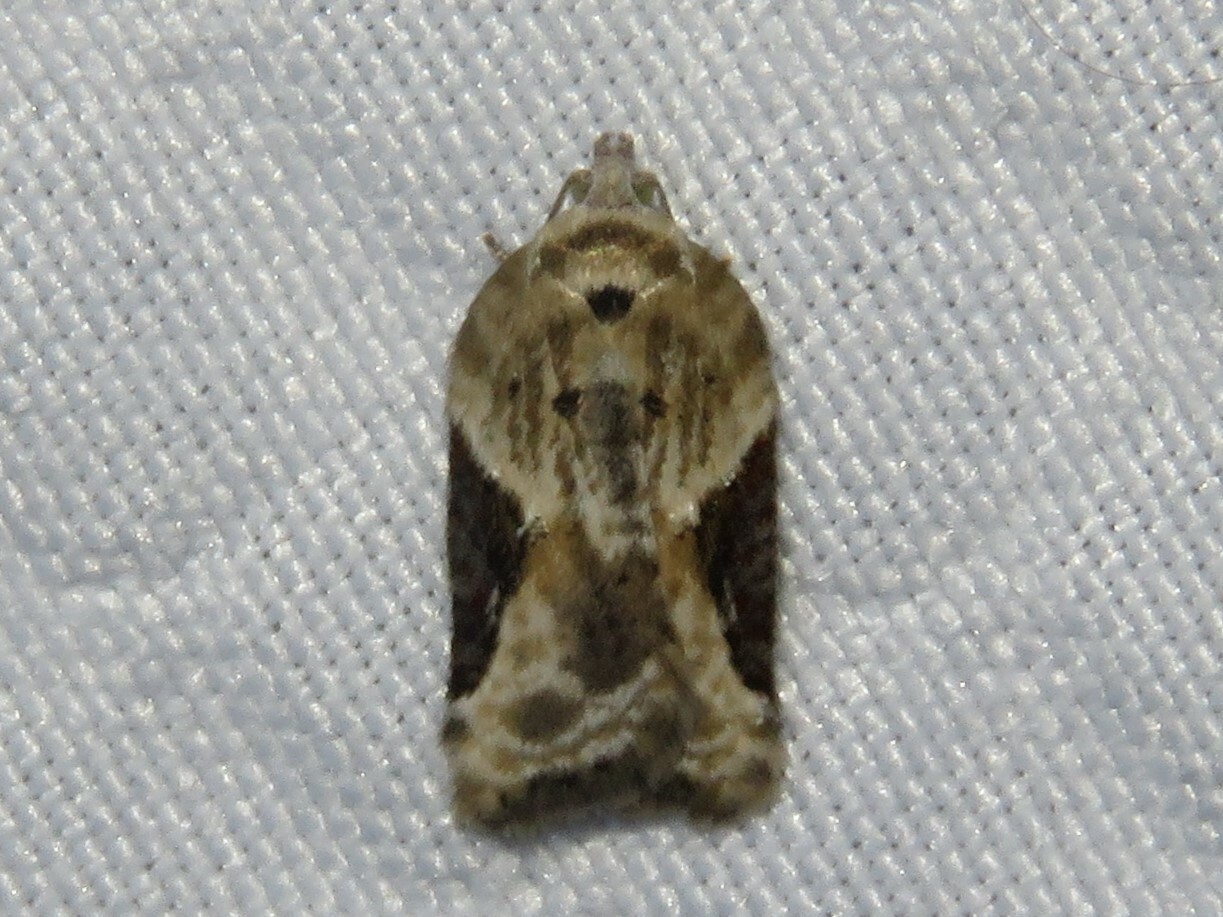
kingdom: Animalia
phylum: Arthropoda
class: Insecta
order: Lepidoptera
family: Tortricidae
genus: Acleris
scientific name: Acleris forbesana
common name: Forbes' acleris moth
